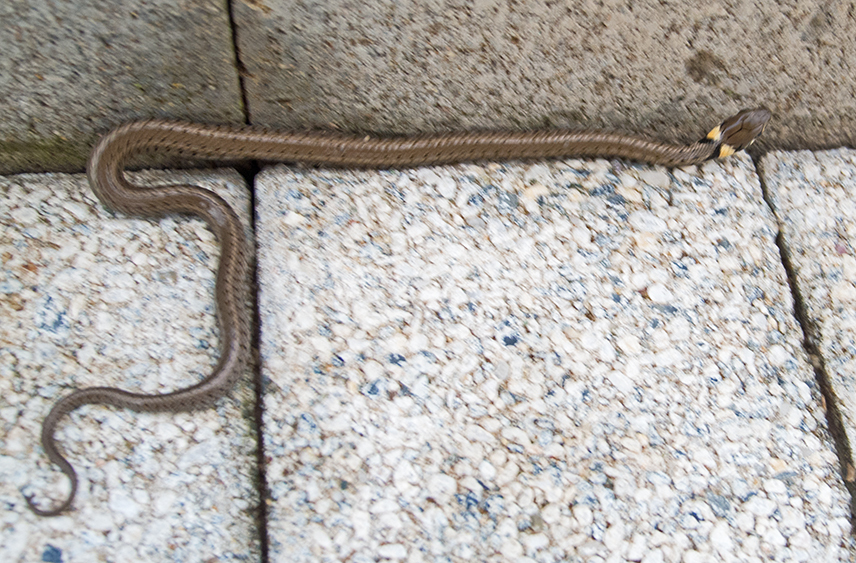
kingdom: Animalia
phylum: Chordata
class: Squamata
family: Colubridae
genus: Natrix
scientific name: Natrix natrix
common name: Grass snake
